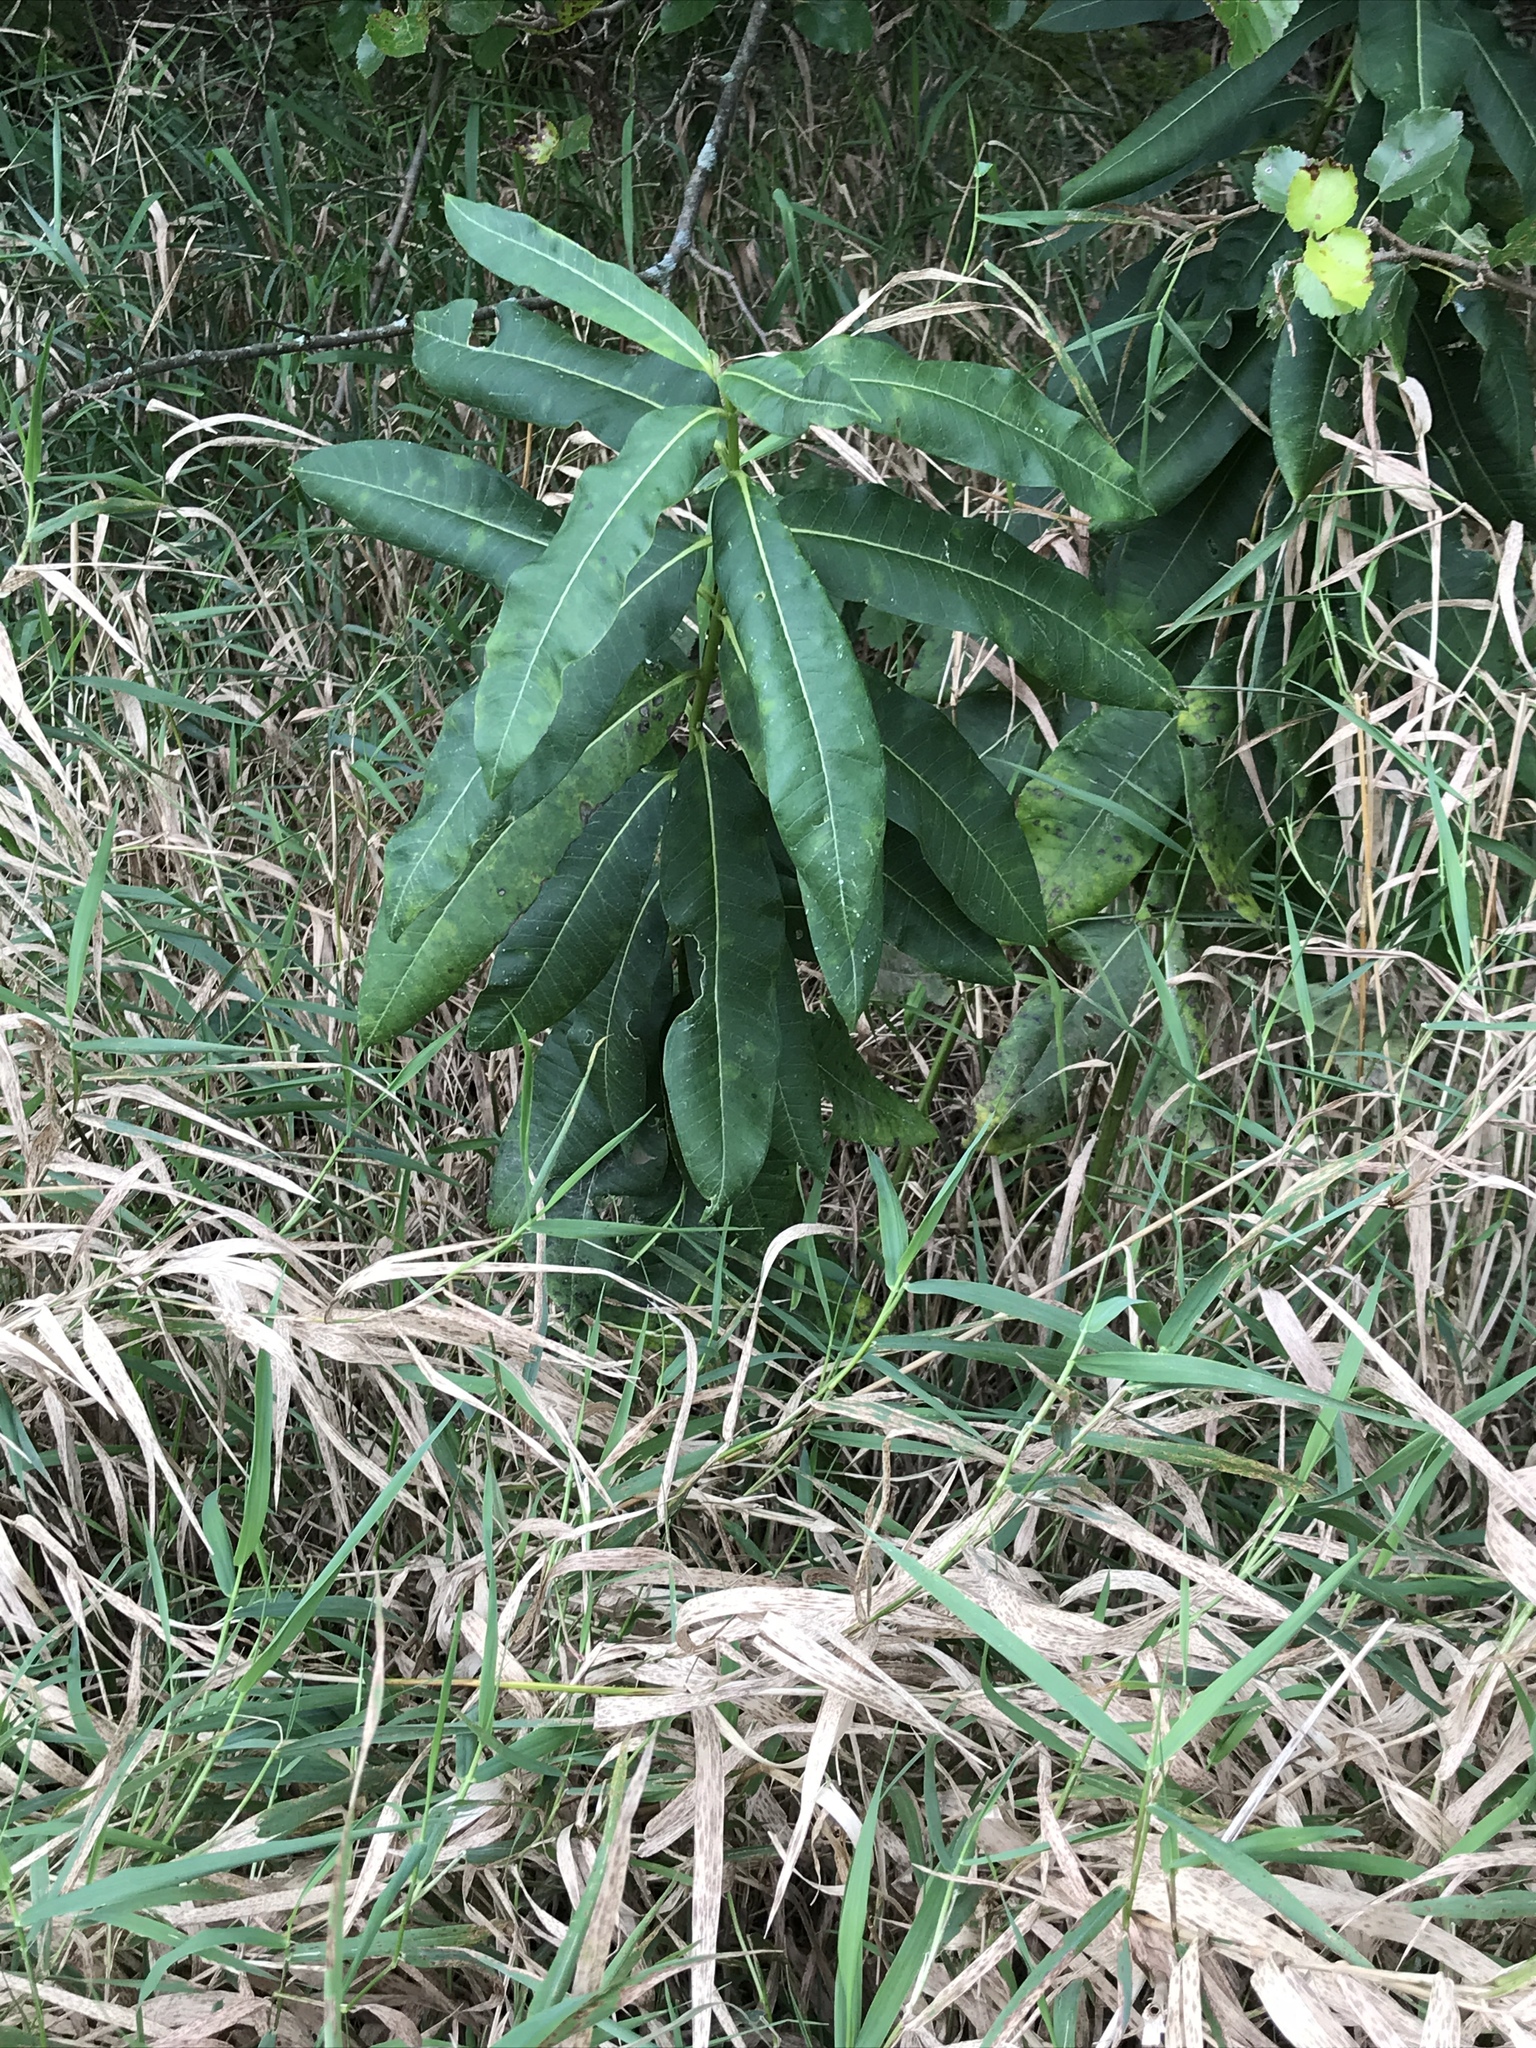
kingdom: Plantae
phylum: Tracheophyta
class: Magnoliopsida
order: Gentianales
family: Apocynaceae
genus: Asclepias
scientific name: Asclepias syriaca
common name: Common milkweed
